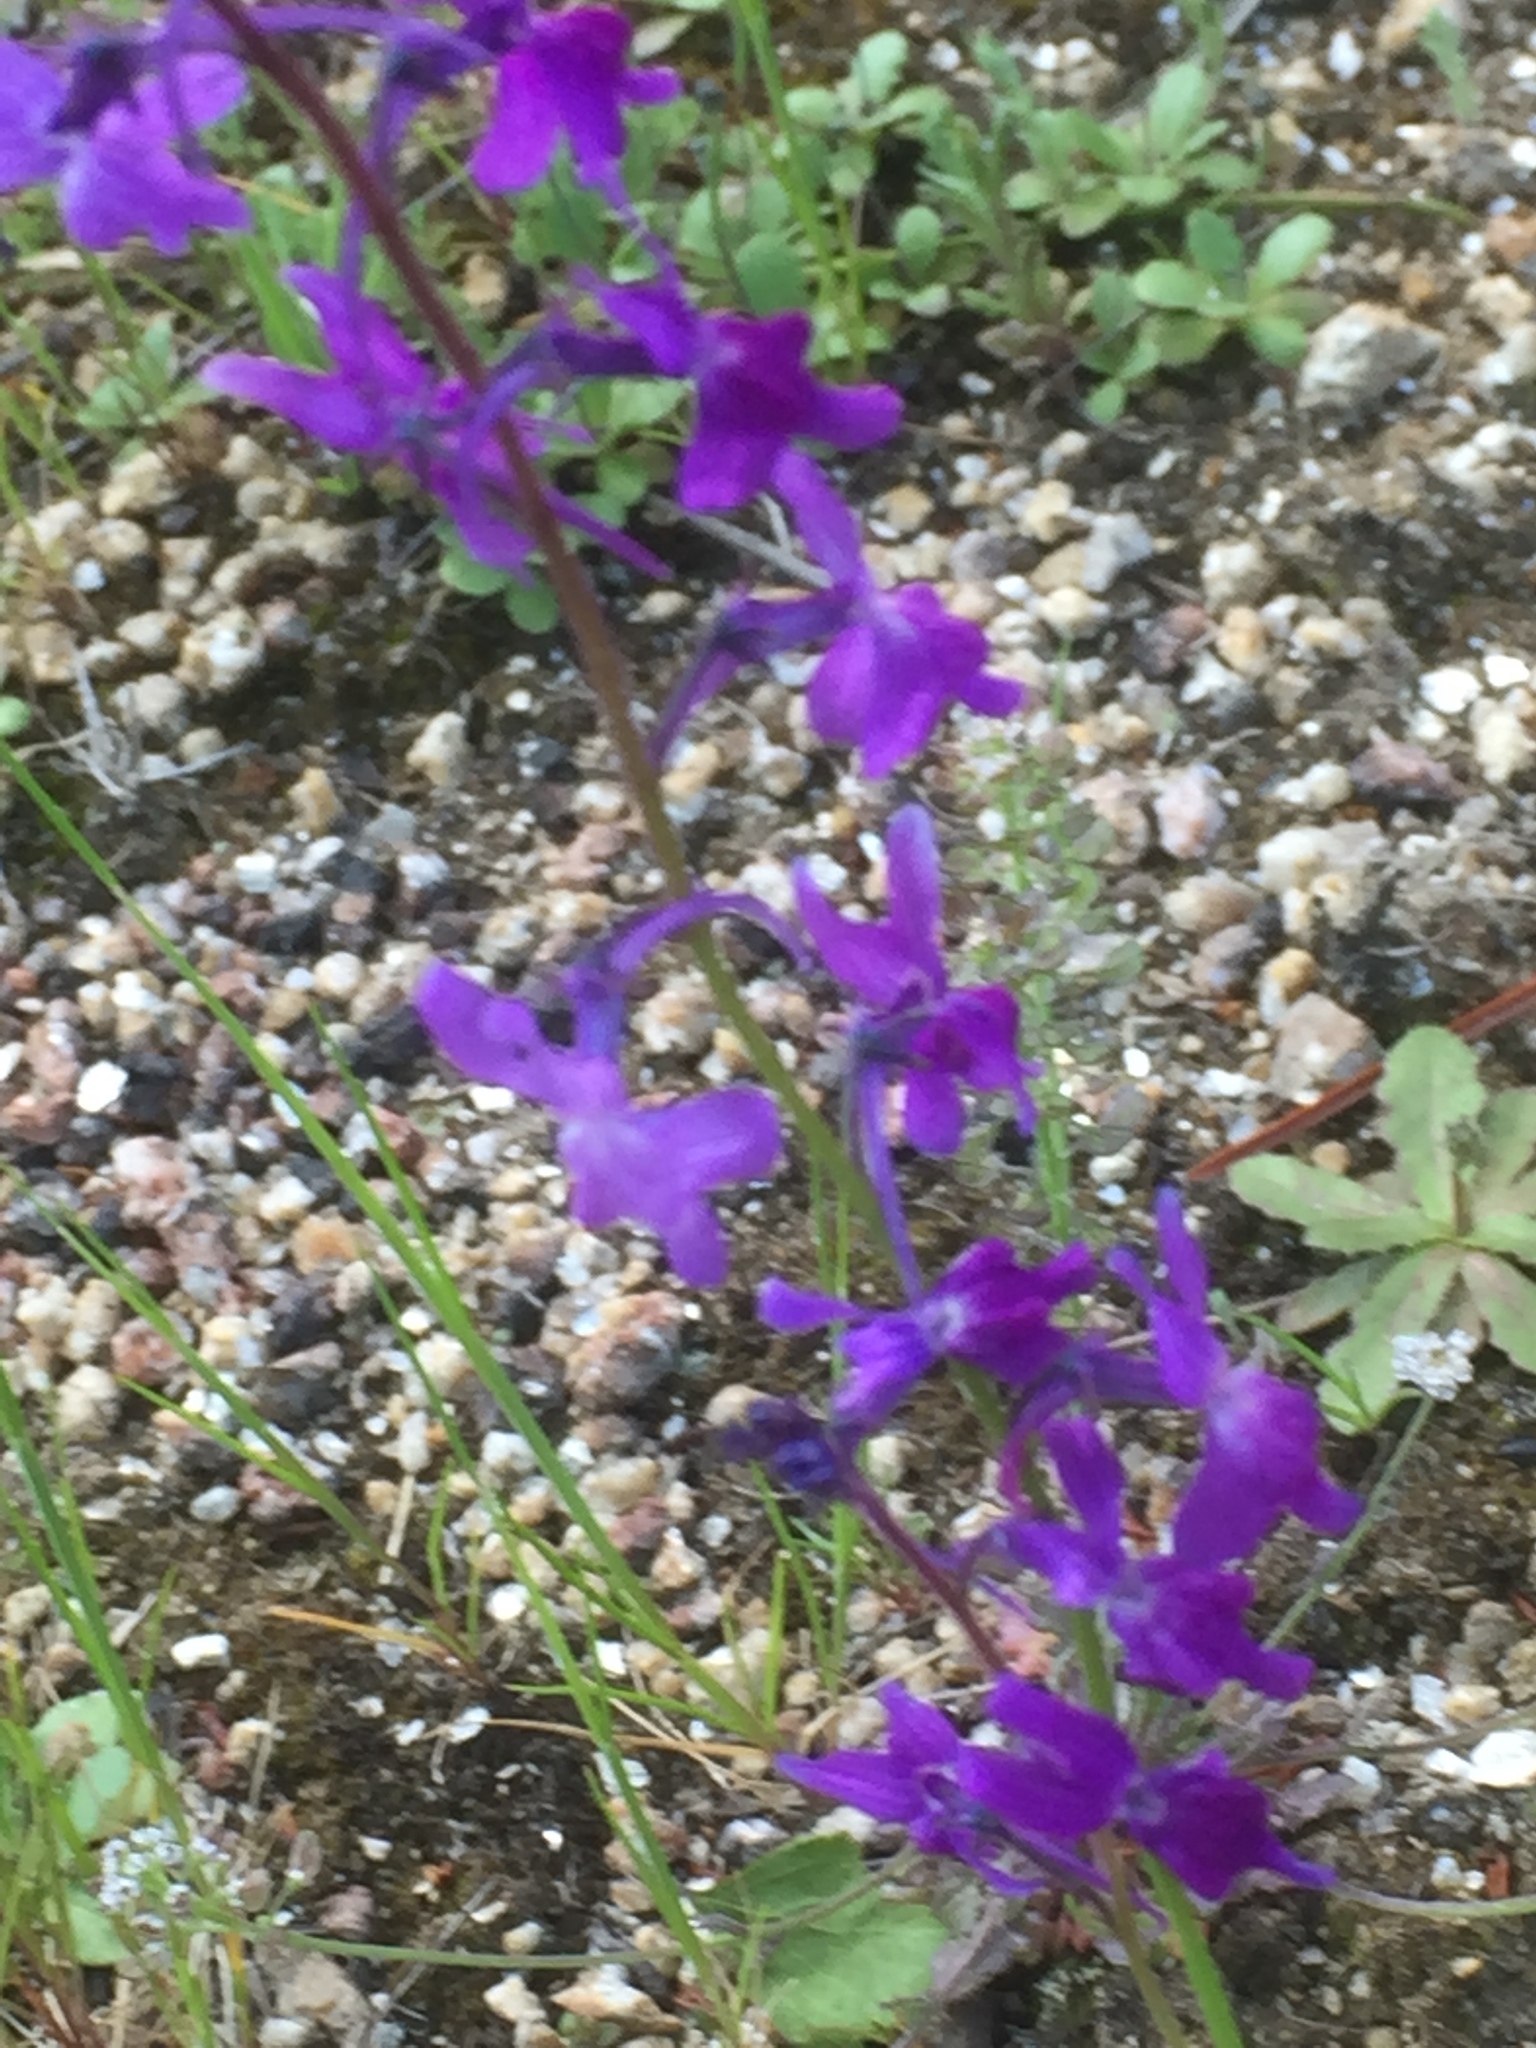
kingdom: Plantae
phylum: Tracheophyta
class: Magnoliopsida
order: Lamiales
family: Plantaginaceae
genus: Linaria
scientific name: Linaria elegans
